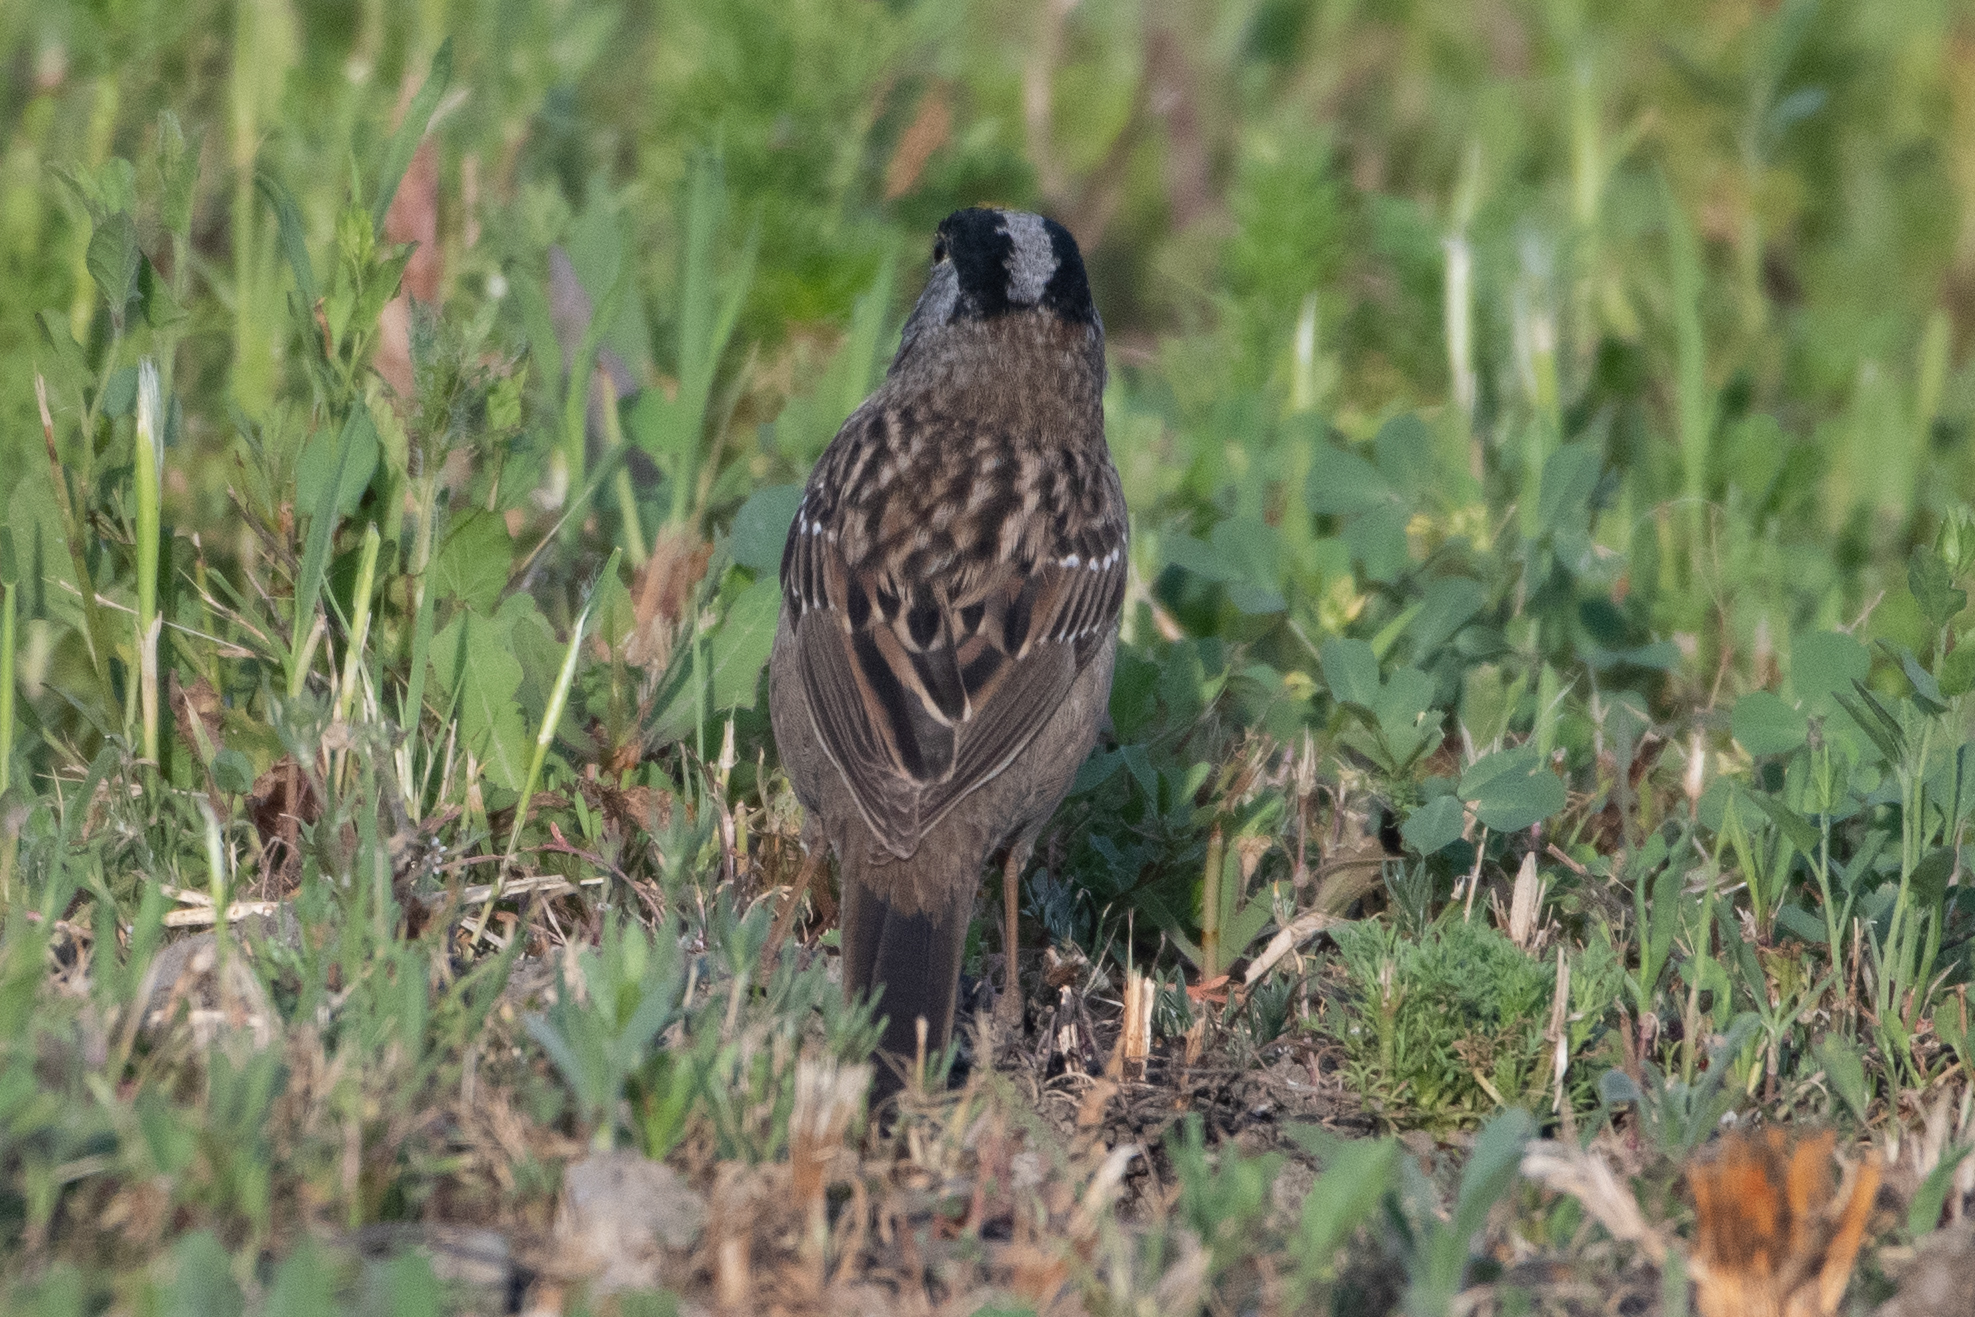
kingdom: Animalia
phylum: Chordata
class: Aves
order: Passeriformes
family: Passerellidae
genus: Zonotrichia
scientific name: Zonotrichia leucophrys
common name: White-crowned sparrow
